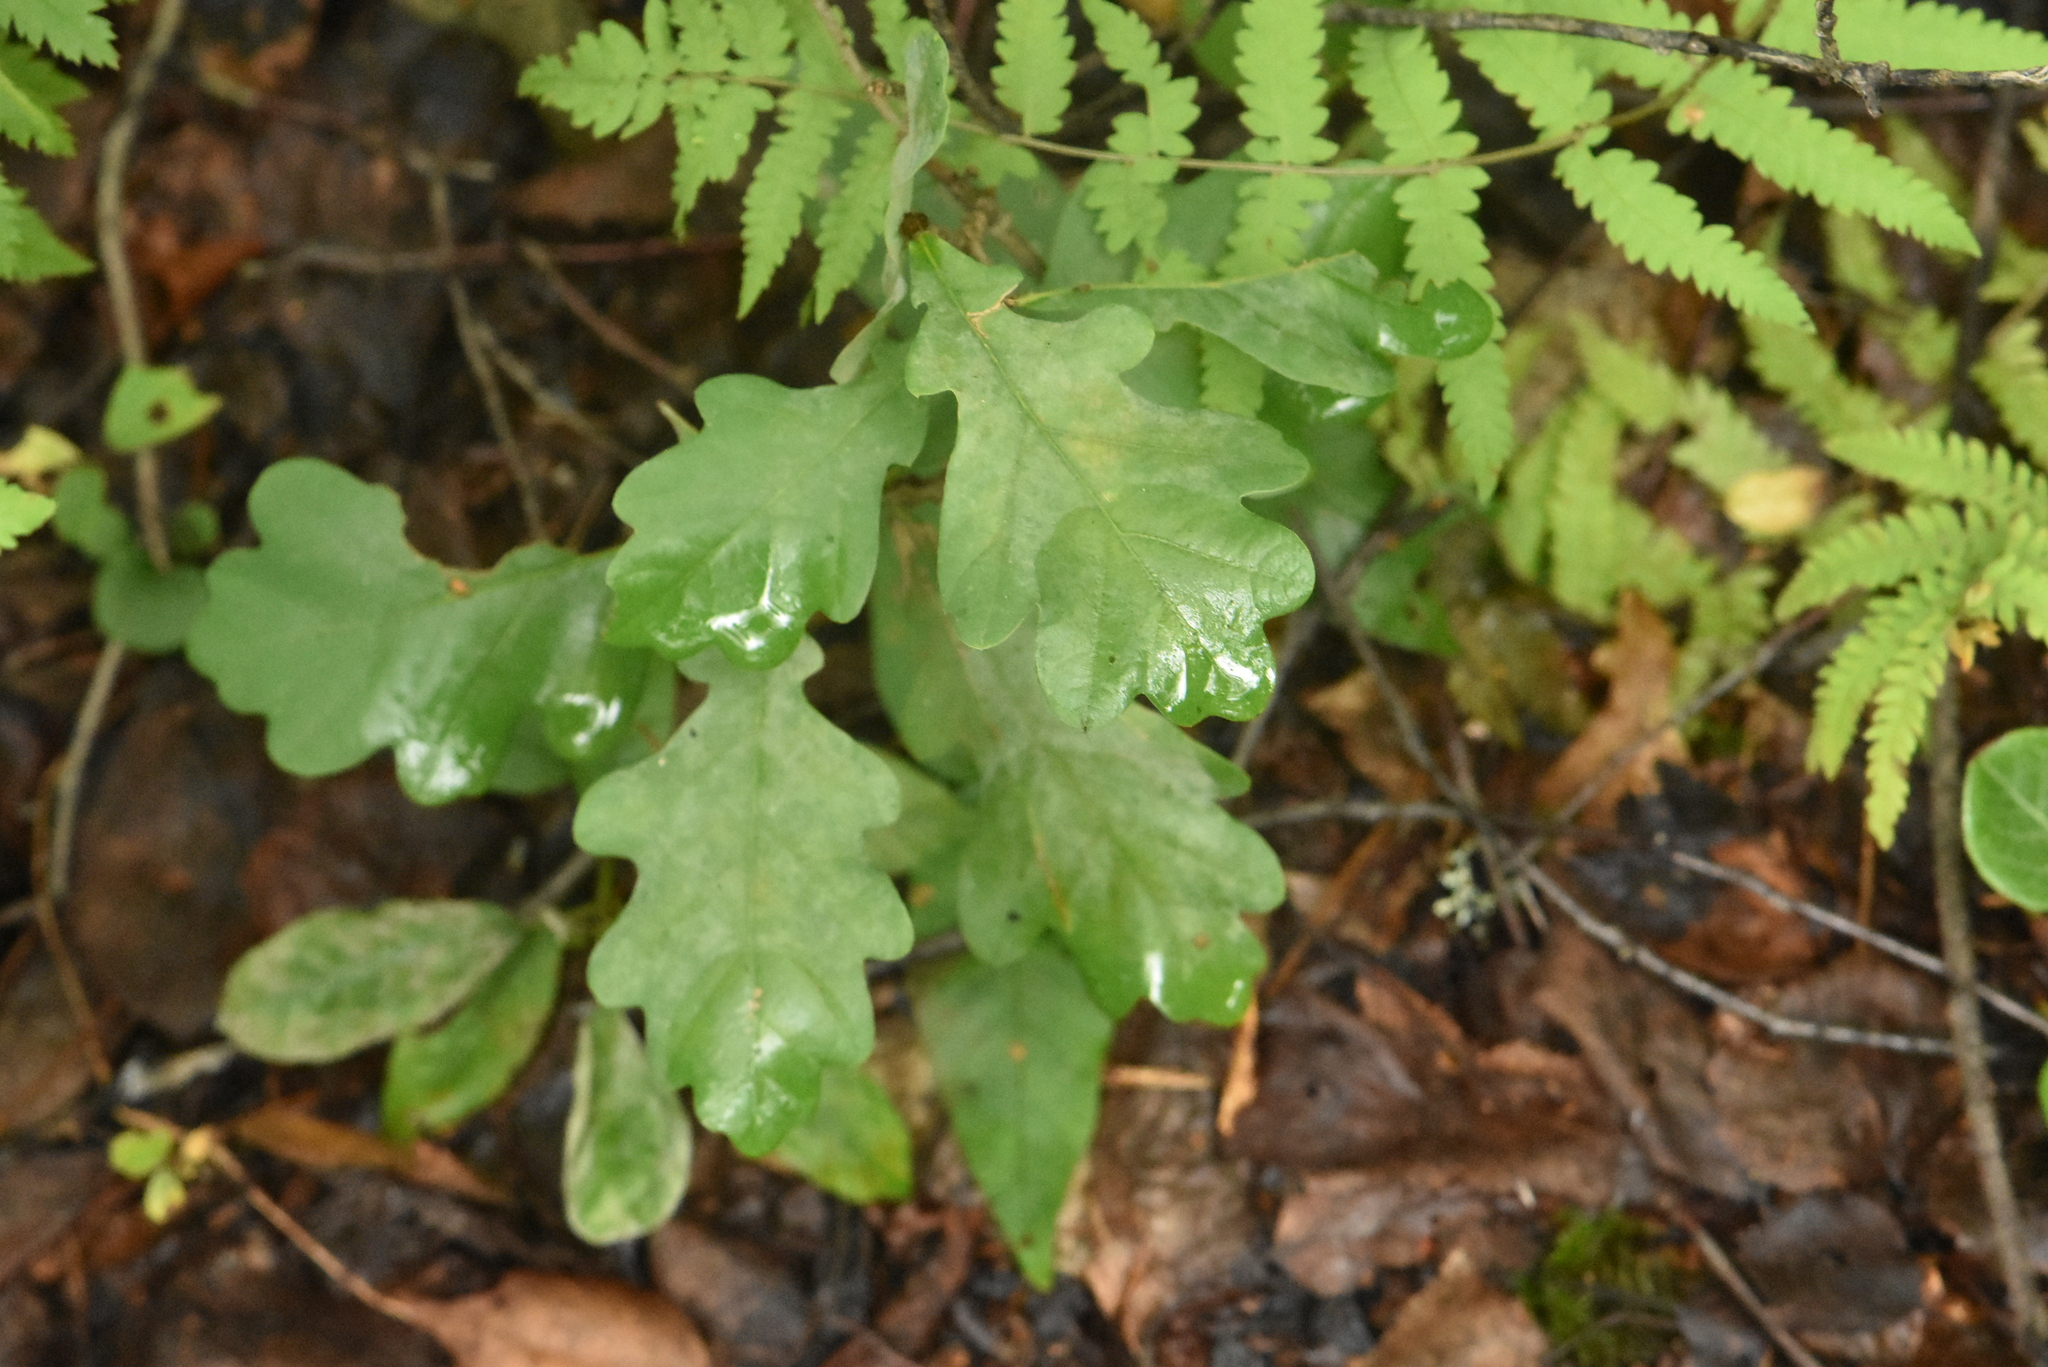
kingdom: Plantae
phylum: Tracheophyta
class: Magnoliopsida
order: Fagales
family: Fagaceae
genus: Quercus
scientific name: Quercus robur
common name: Pedunculate oak
